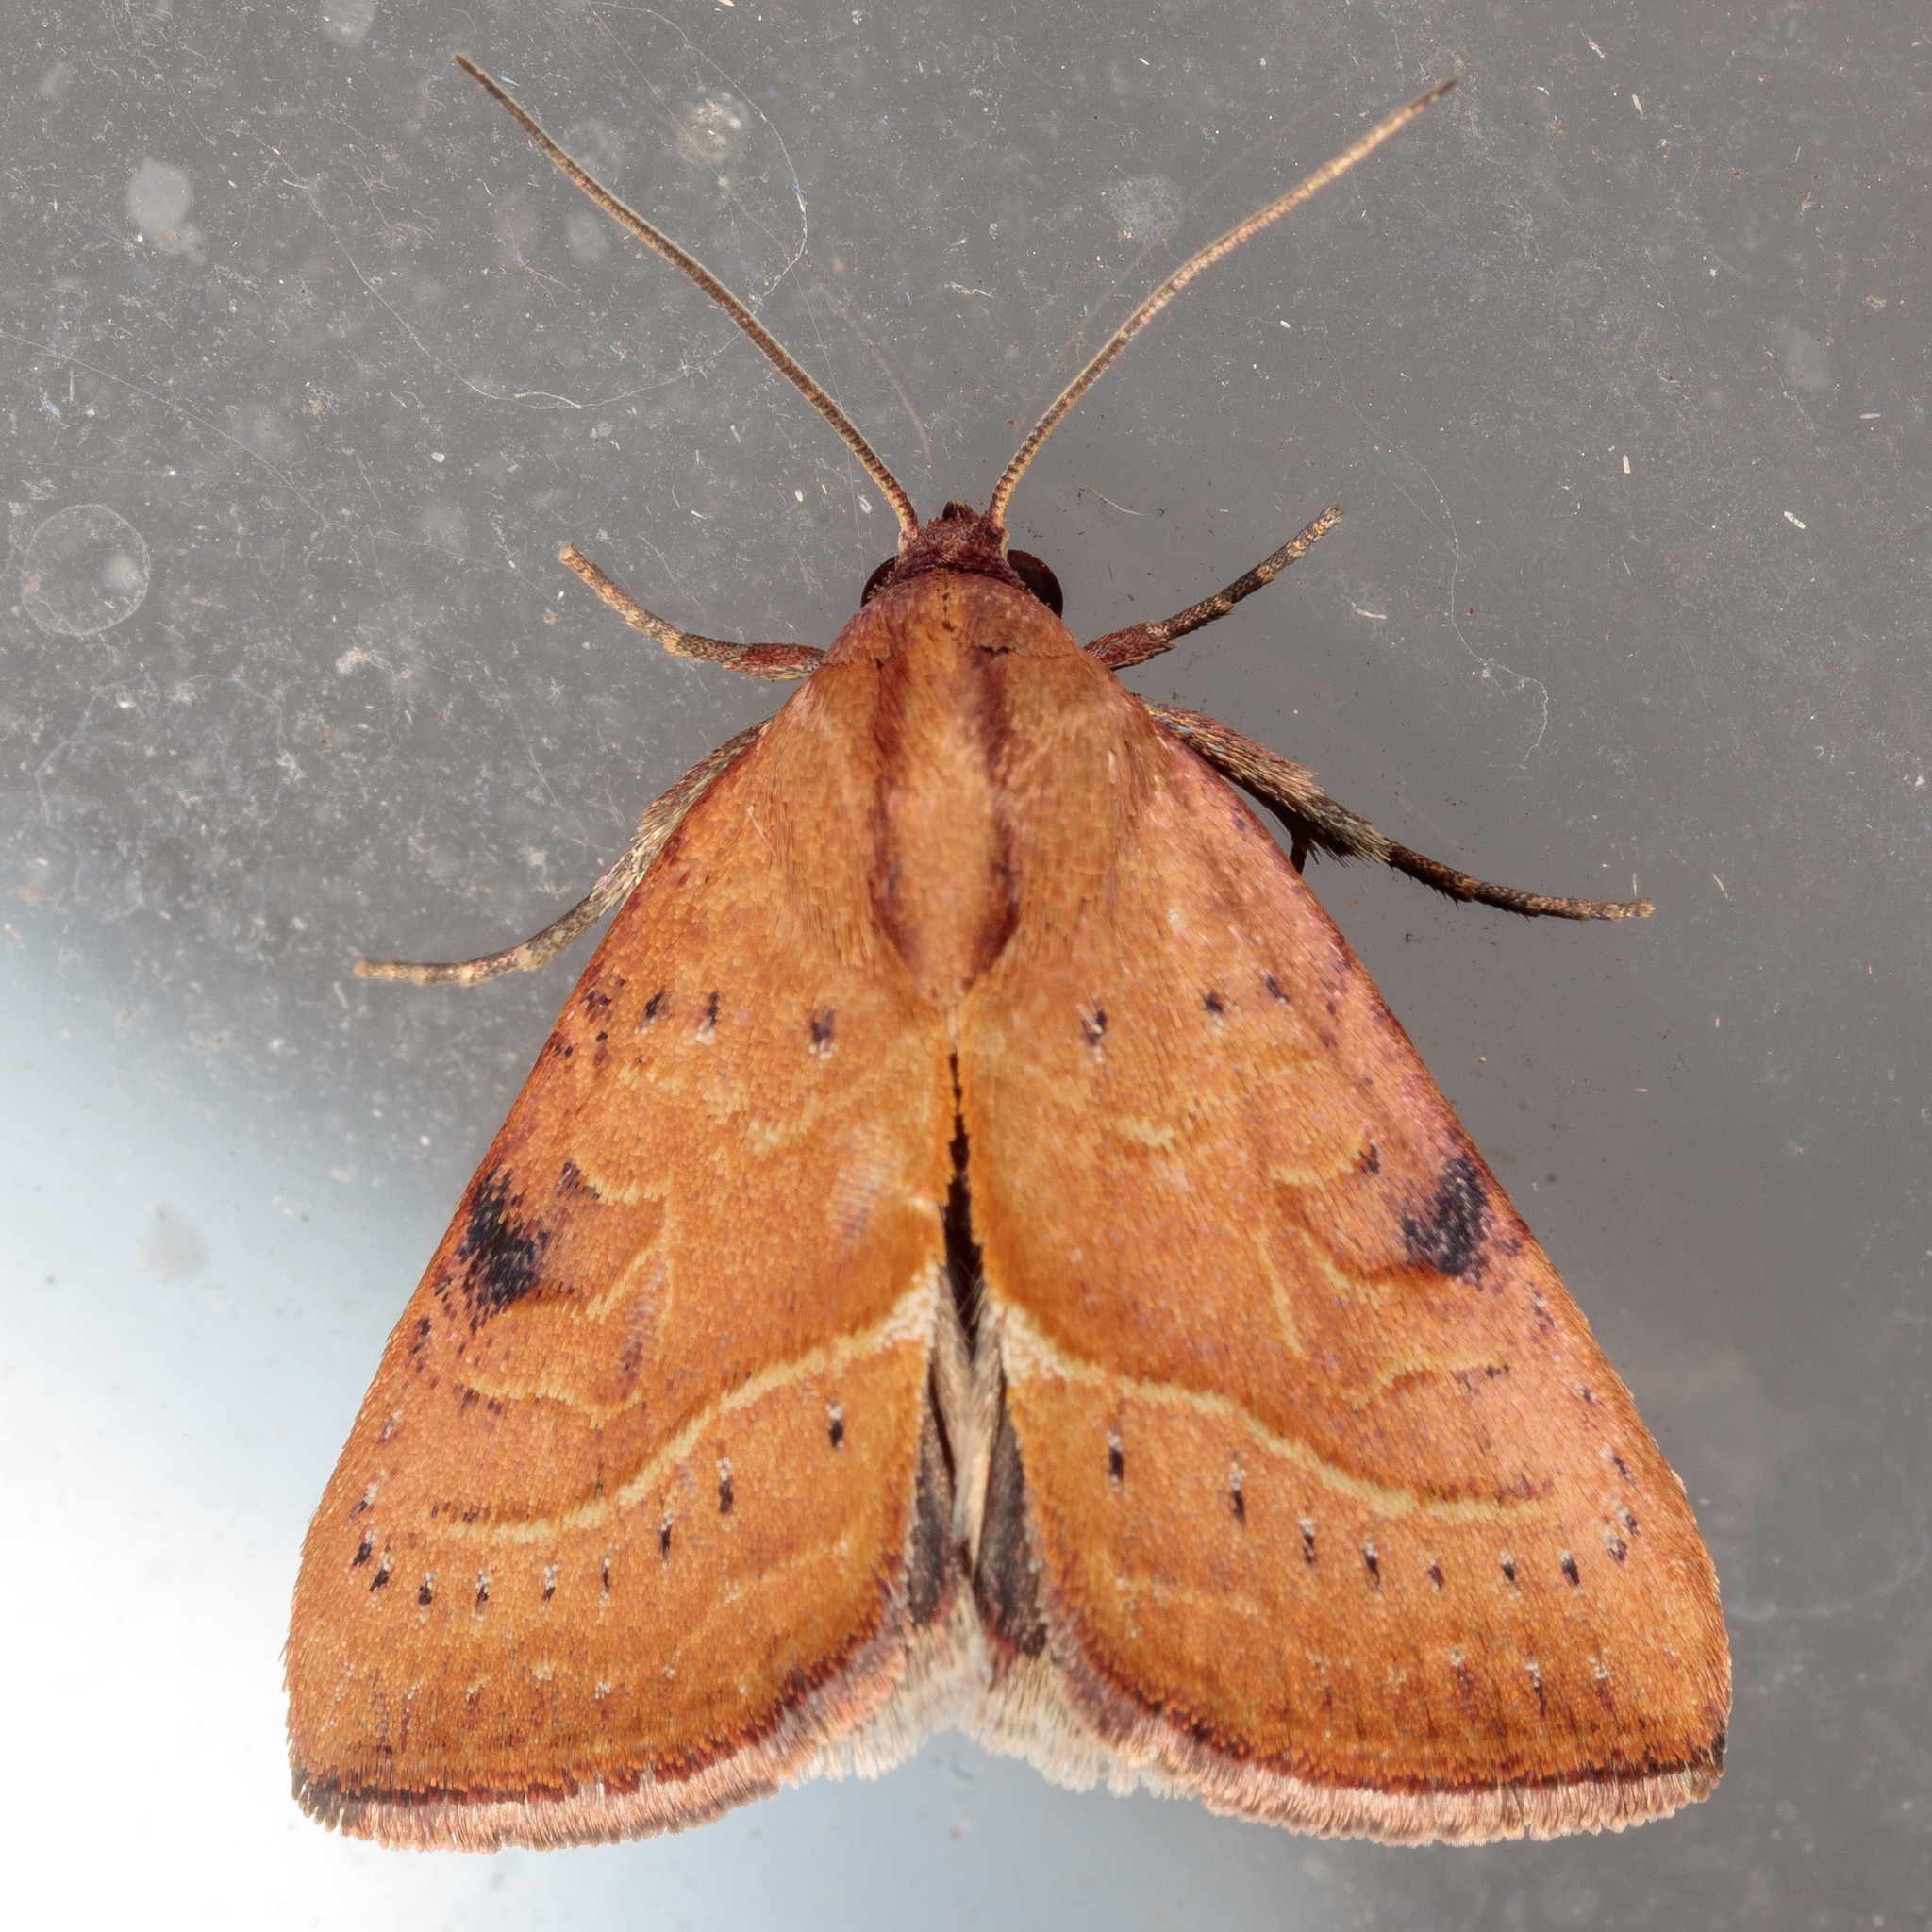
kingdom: Animalia
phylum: Arthropoda
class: Insecta
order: Lepidoptera
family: Noctuidae
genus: Galgula
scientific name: Galgula partita
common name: Wedgeling
